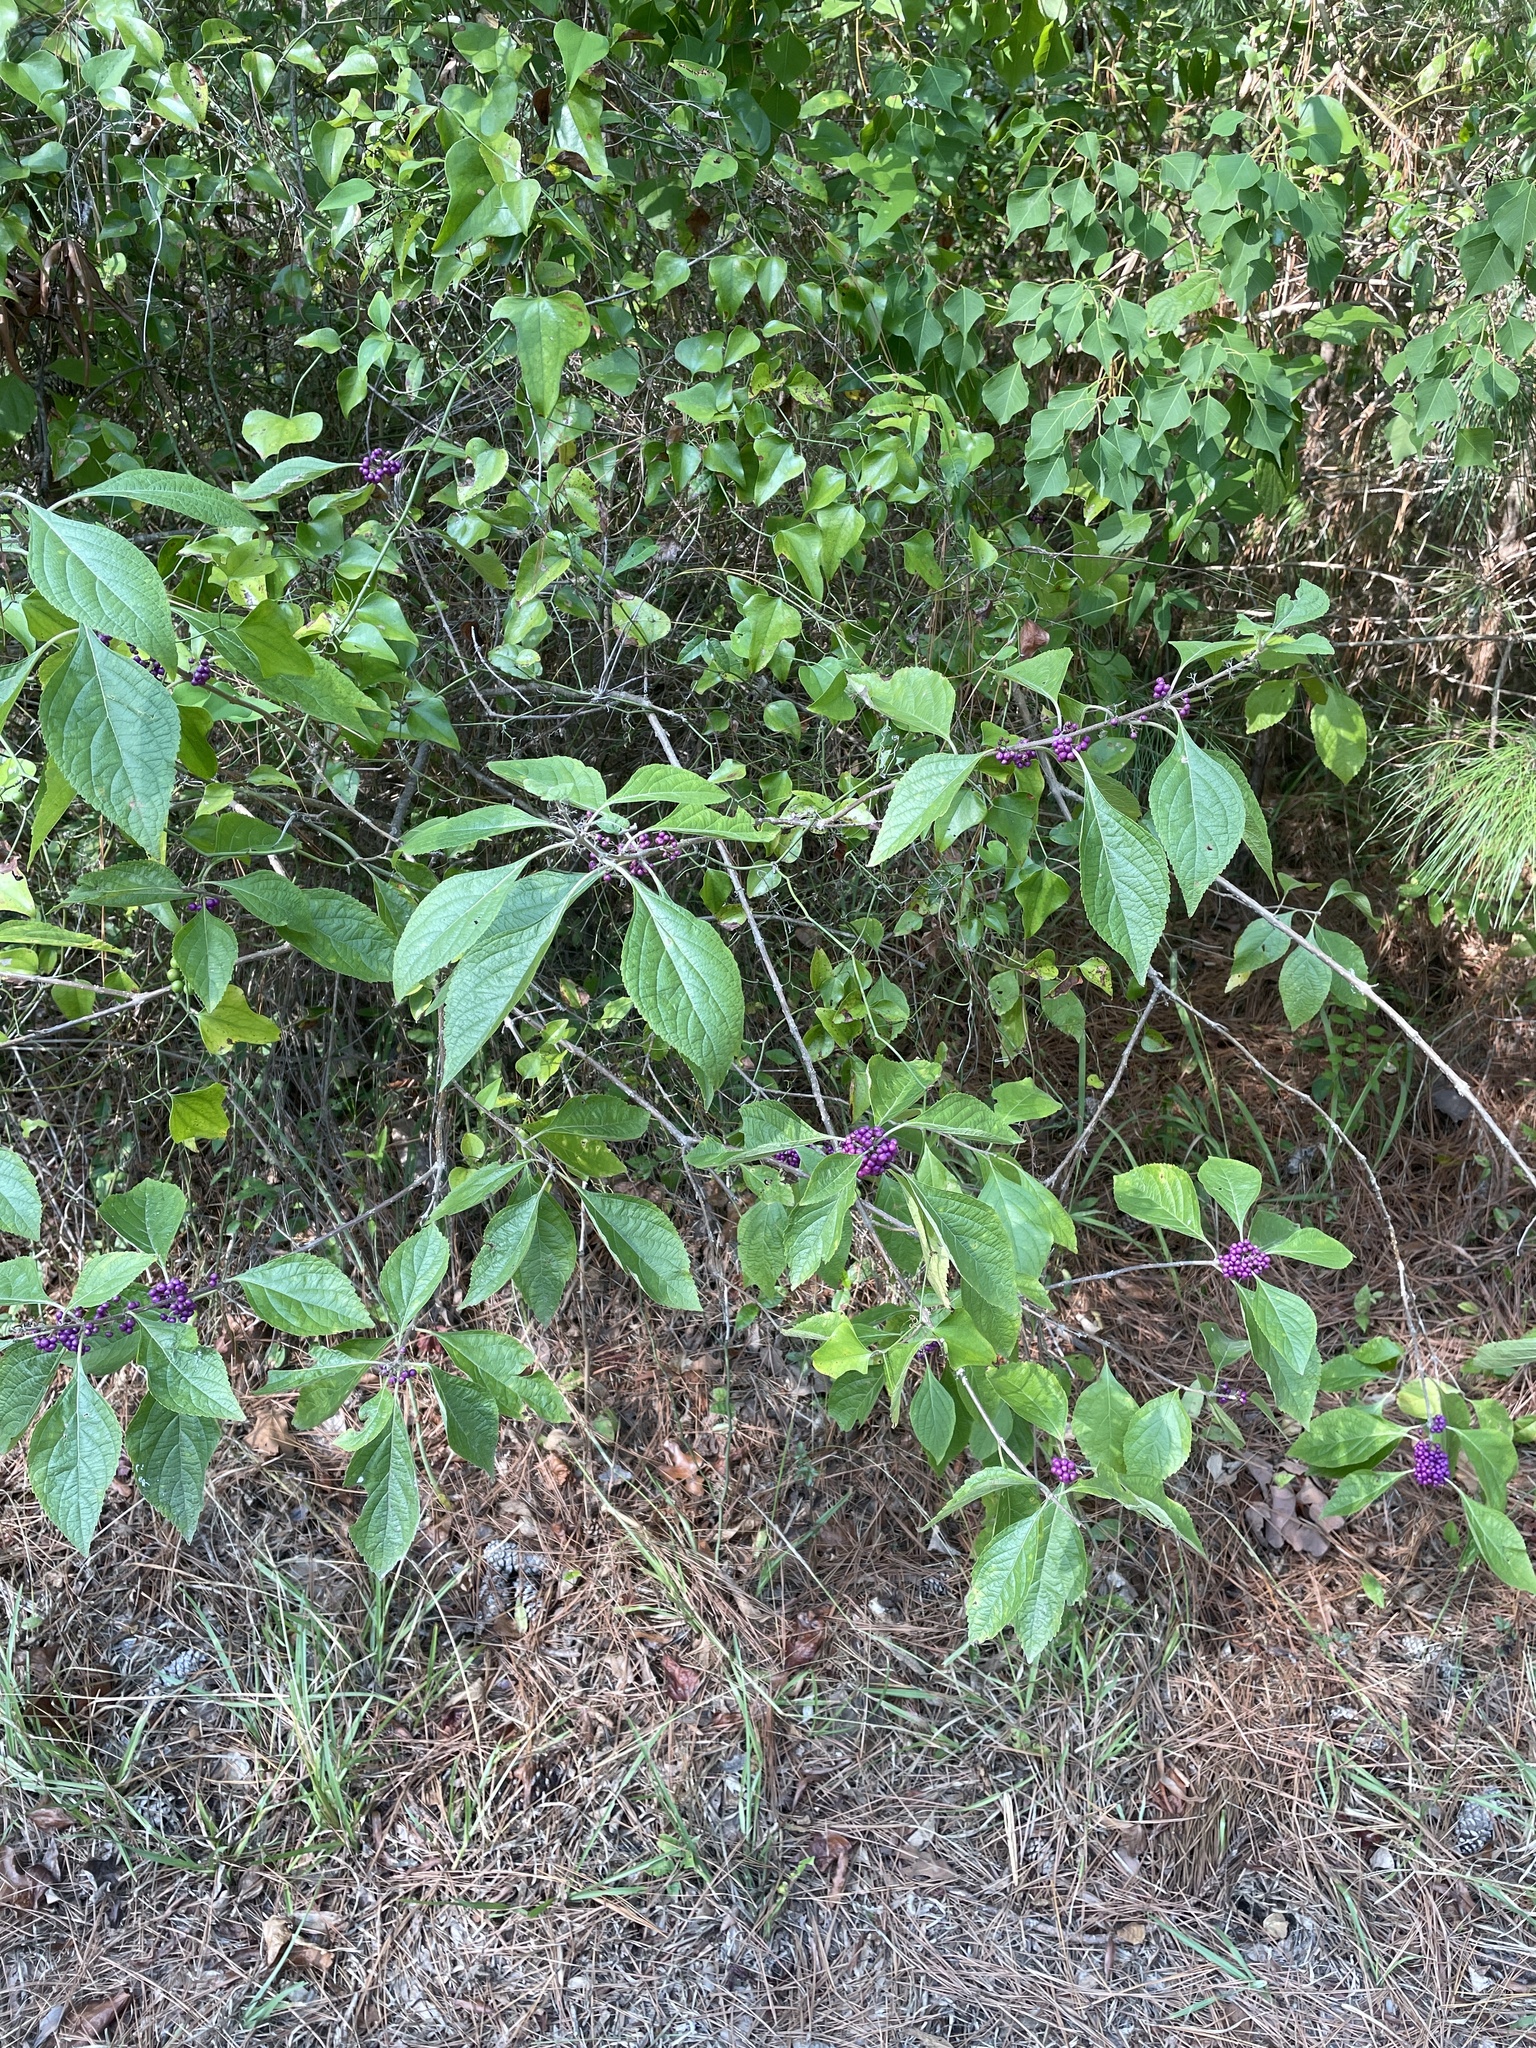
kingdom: Plantae
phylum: Tracheophyta
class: Magnoliopsida
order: Lamiales
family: Lamiaceae
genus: Callicarpa
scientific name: Callicarpa americana
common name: American beautyberry
